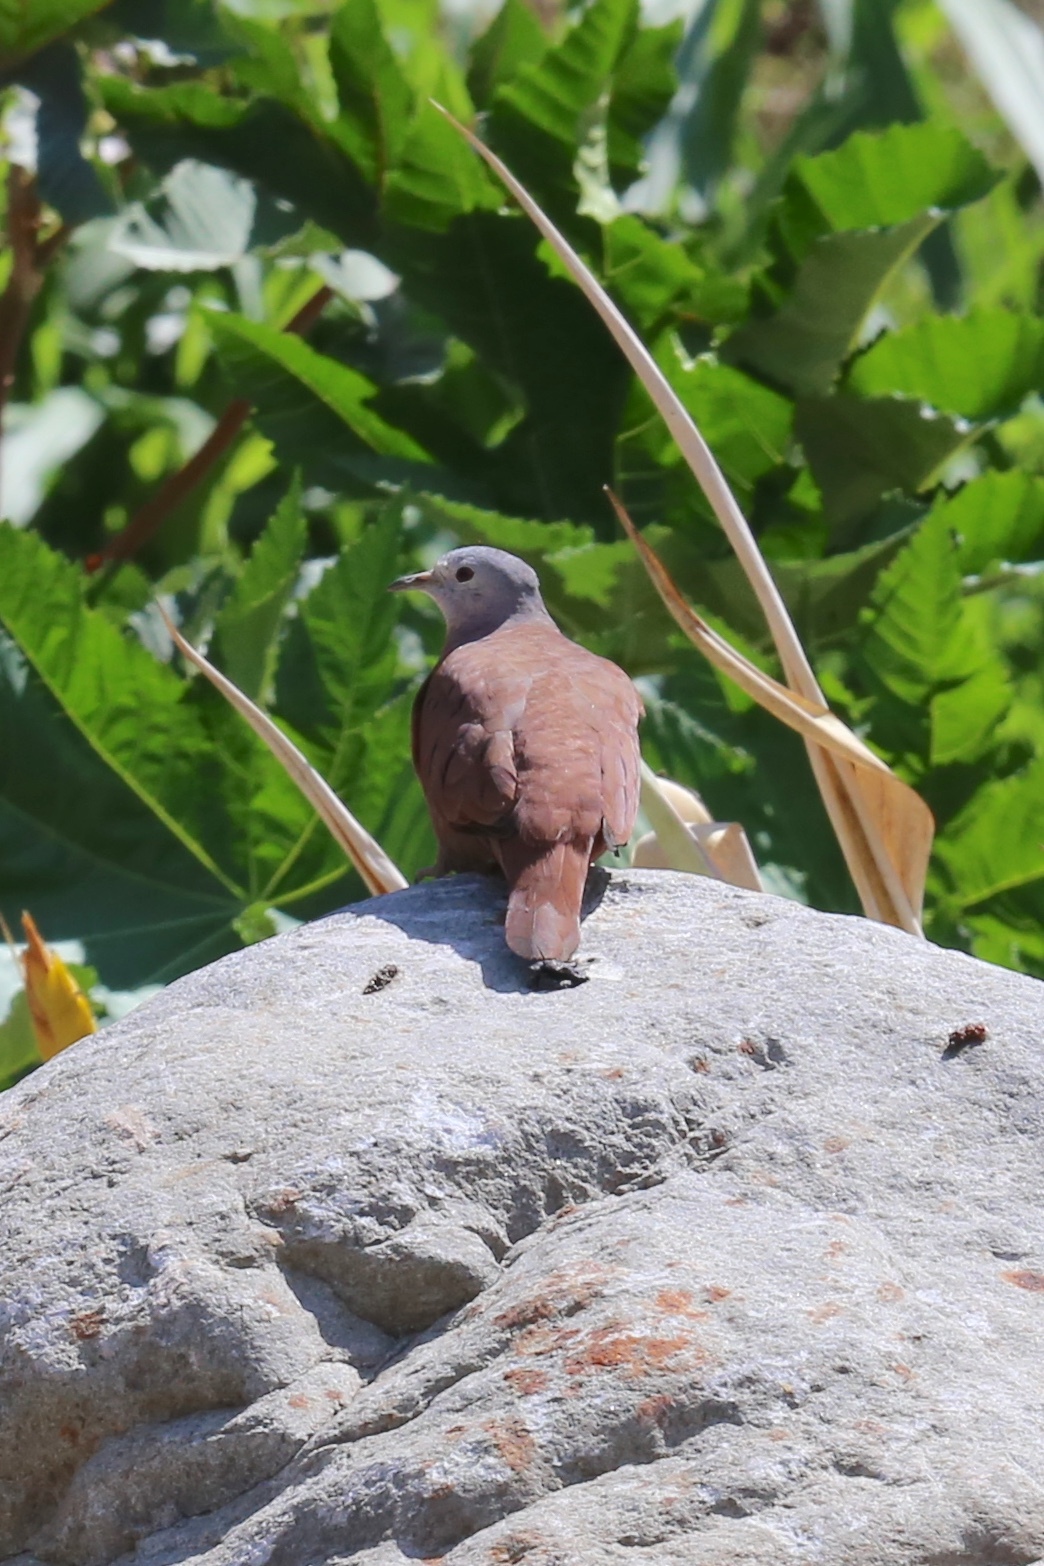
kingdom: Animalia
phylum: Chordata
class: Aves
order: Columbiformes
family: Columbidae
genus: Columbina
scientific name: Columbina talpacoti
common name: Ruddy ground dove
